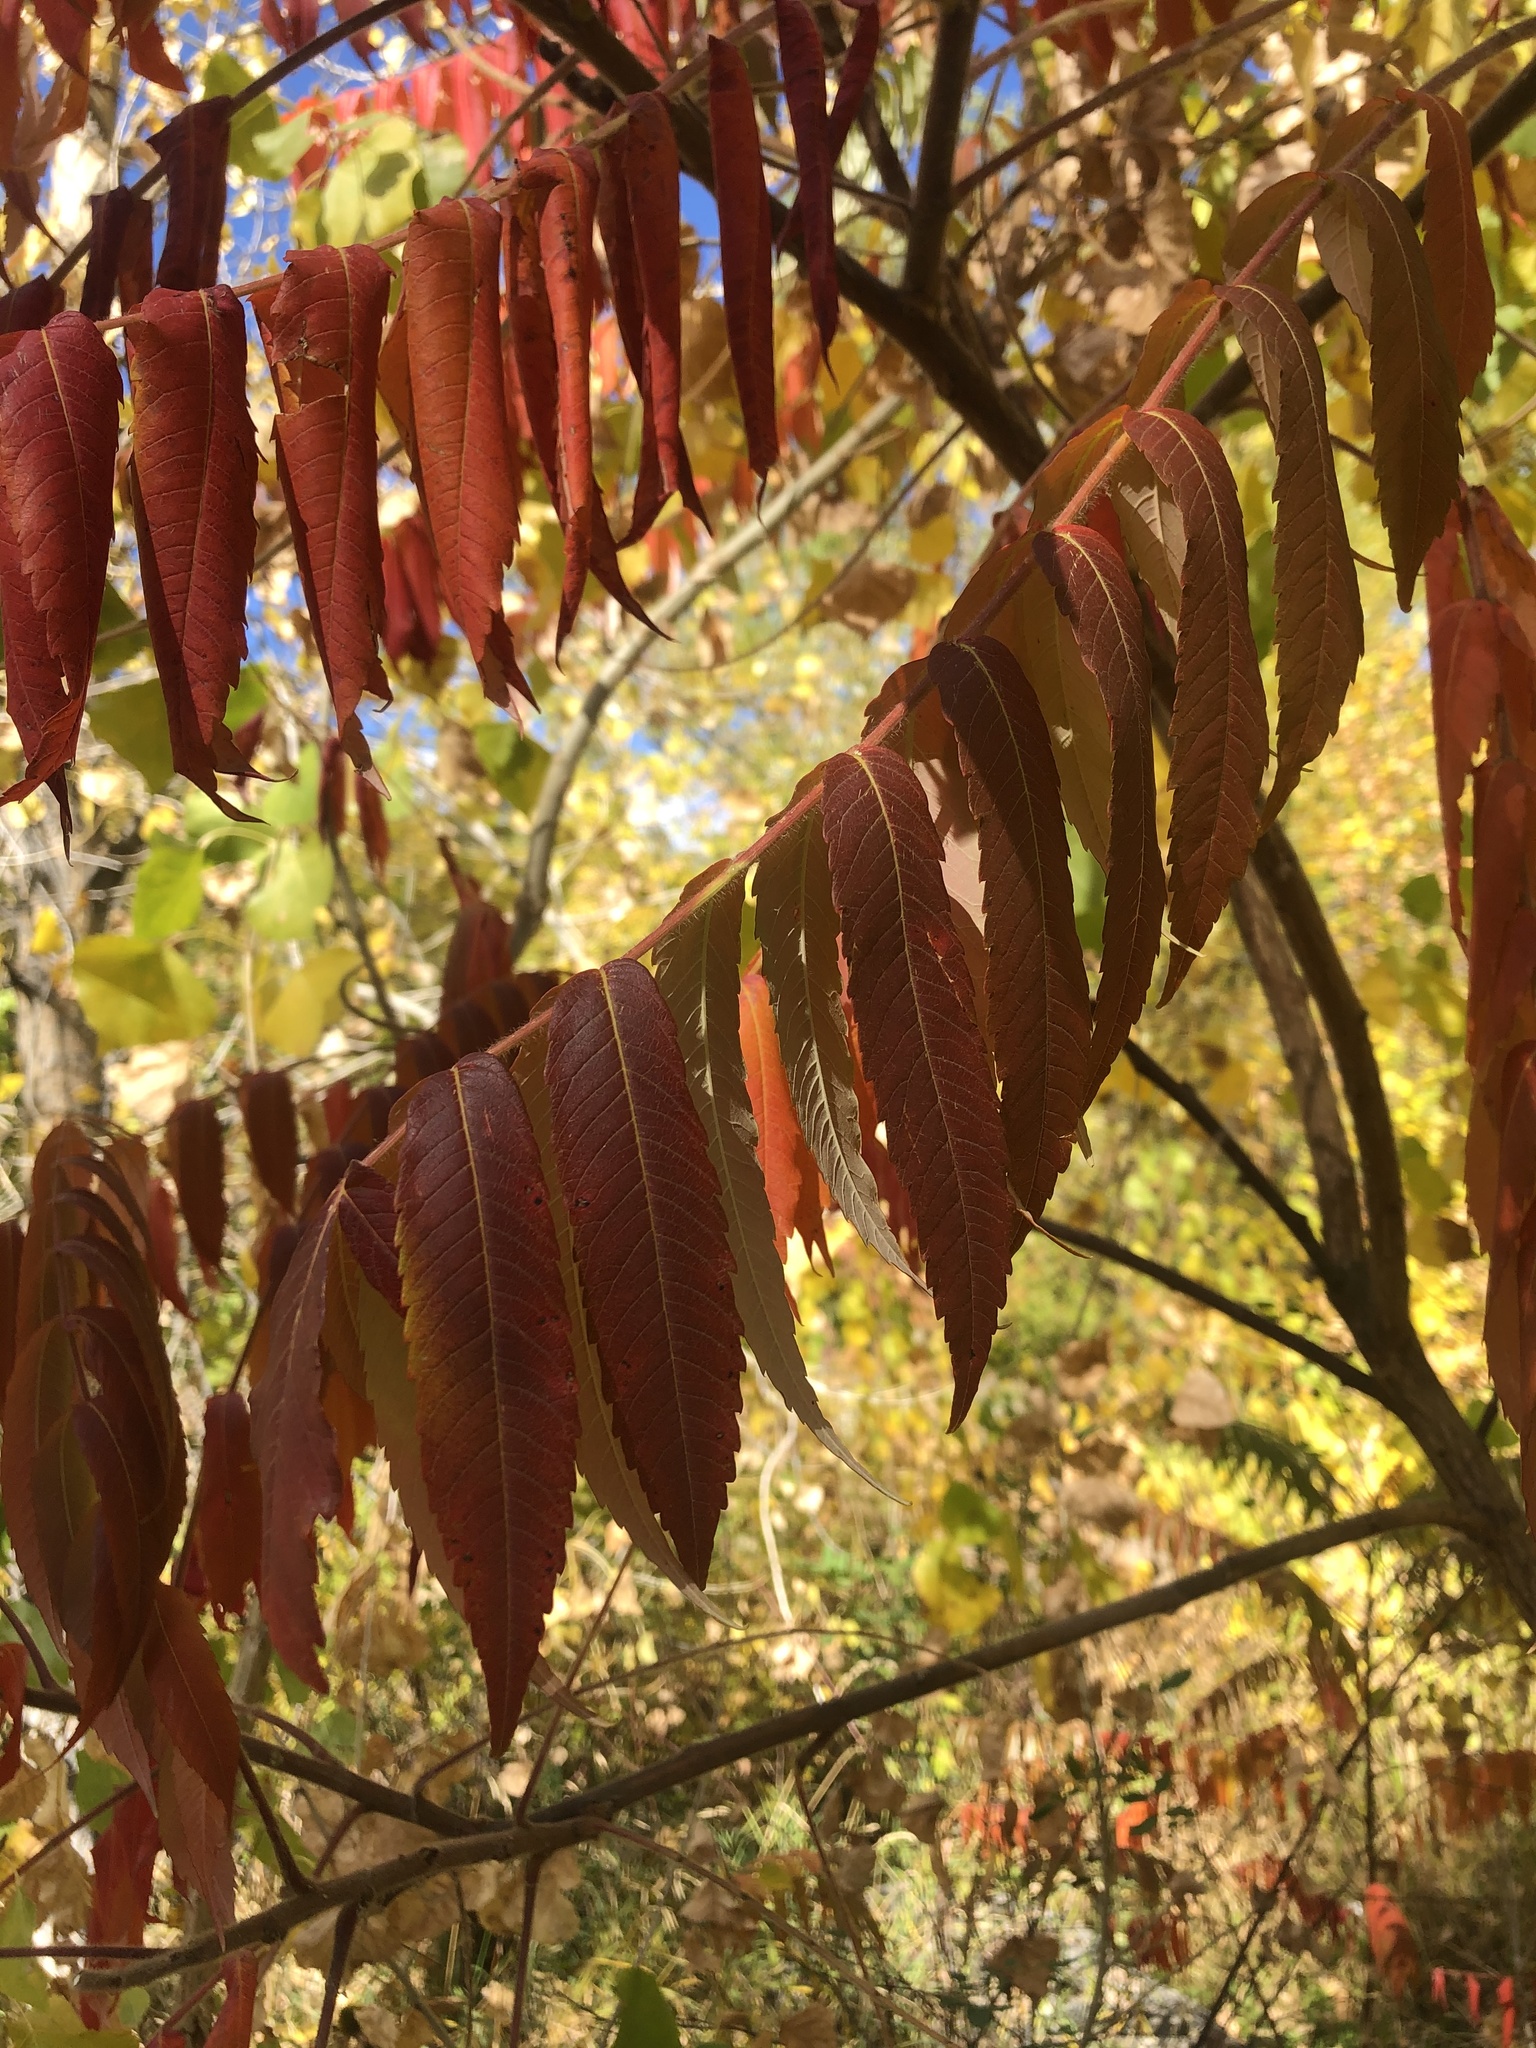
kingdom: Plantae
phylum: Tracheophyta
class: Magnoliopsida
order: Sapindales
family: Anacardiaceae
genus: Rhus
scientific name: Rhus typhina
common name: Staghorn sumac
